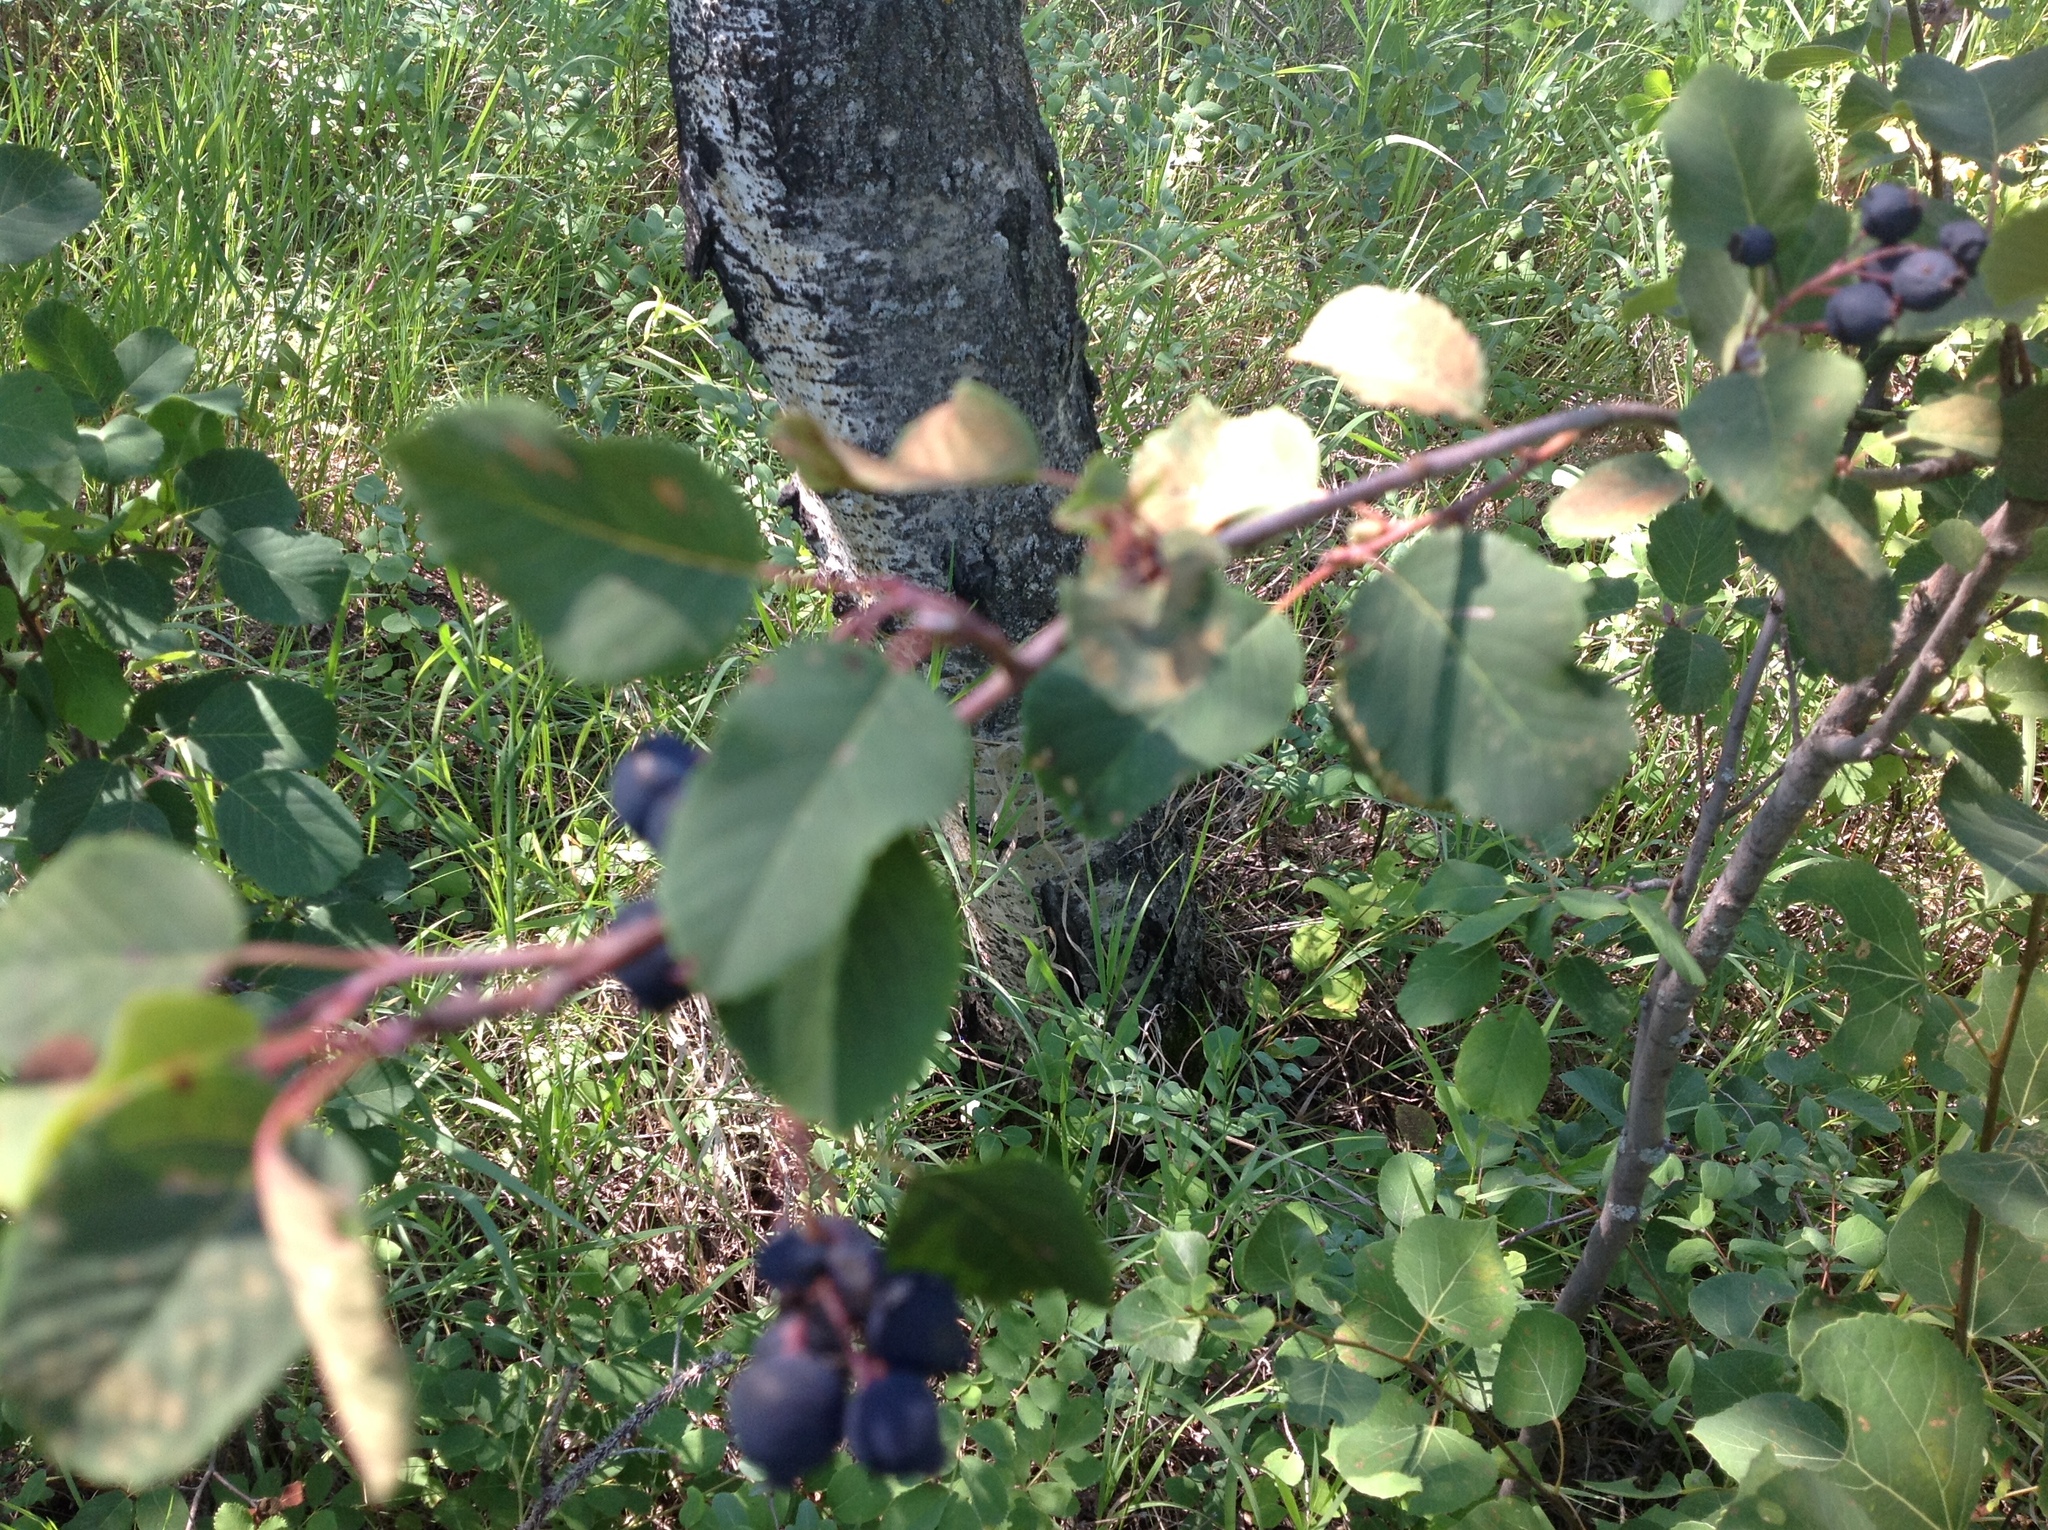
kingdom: Plantae
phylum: Tracheophyta
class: Magnoliopsida
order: Rosales
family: Rosaceae
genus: Amelanchier
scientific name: Amelanchier alnifolia
